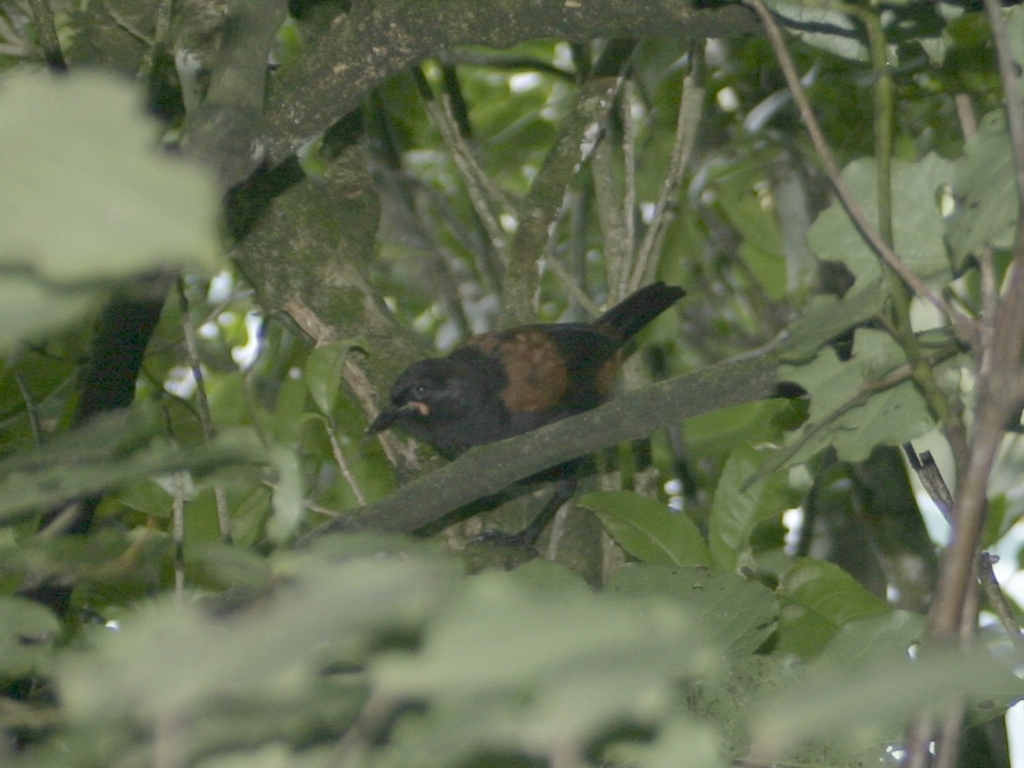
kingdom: Animalia
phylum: Chordata
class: Aves
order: Passeriformes
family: Callaeatidae
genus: Philesturnus
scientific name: Philesturnus carunculatus
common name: South island saddleback
